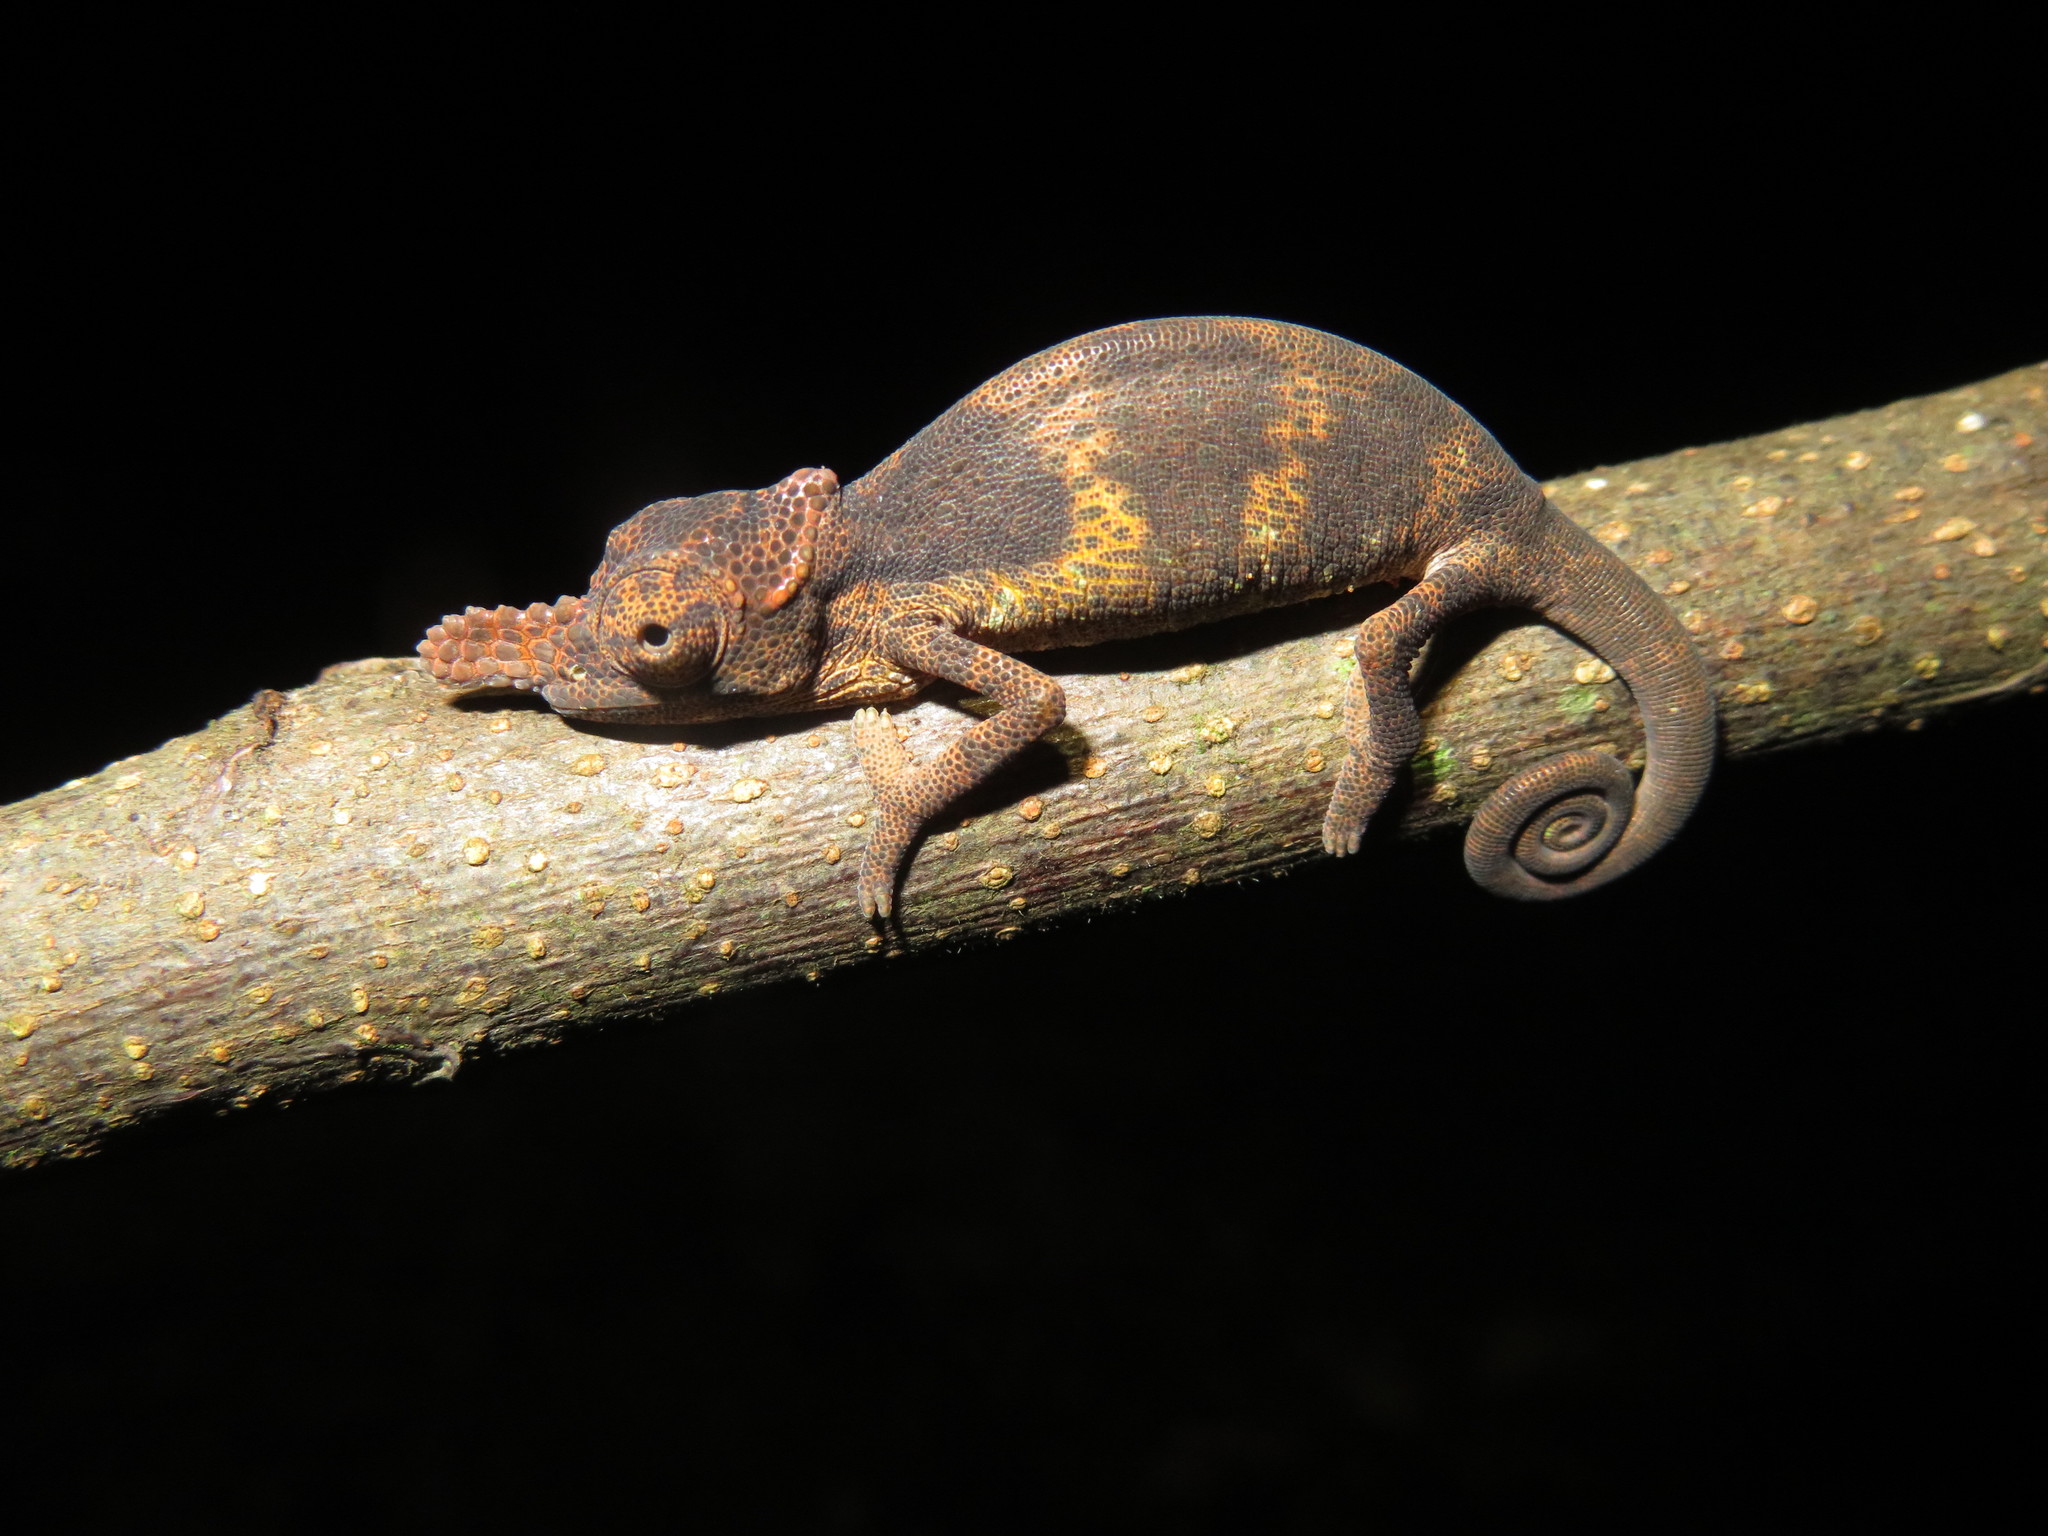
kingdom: Animalia
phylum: Chordata
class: Squamata
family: Chamaeleonidae
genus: Kinyongia
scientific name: Kinyongia tenuis
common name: Matschie's dwarf chameleon
